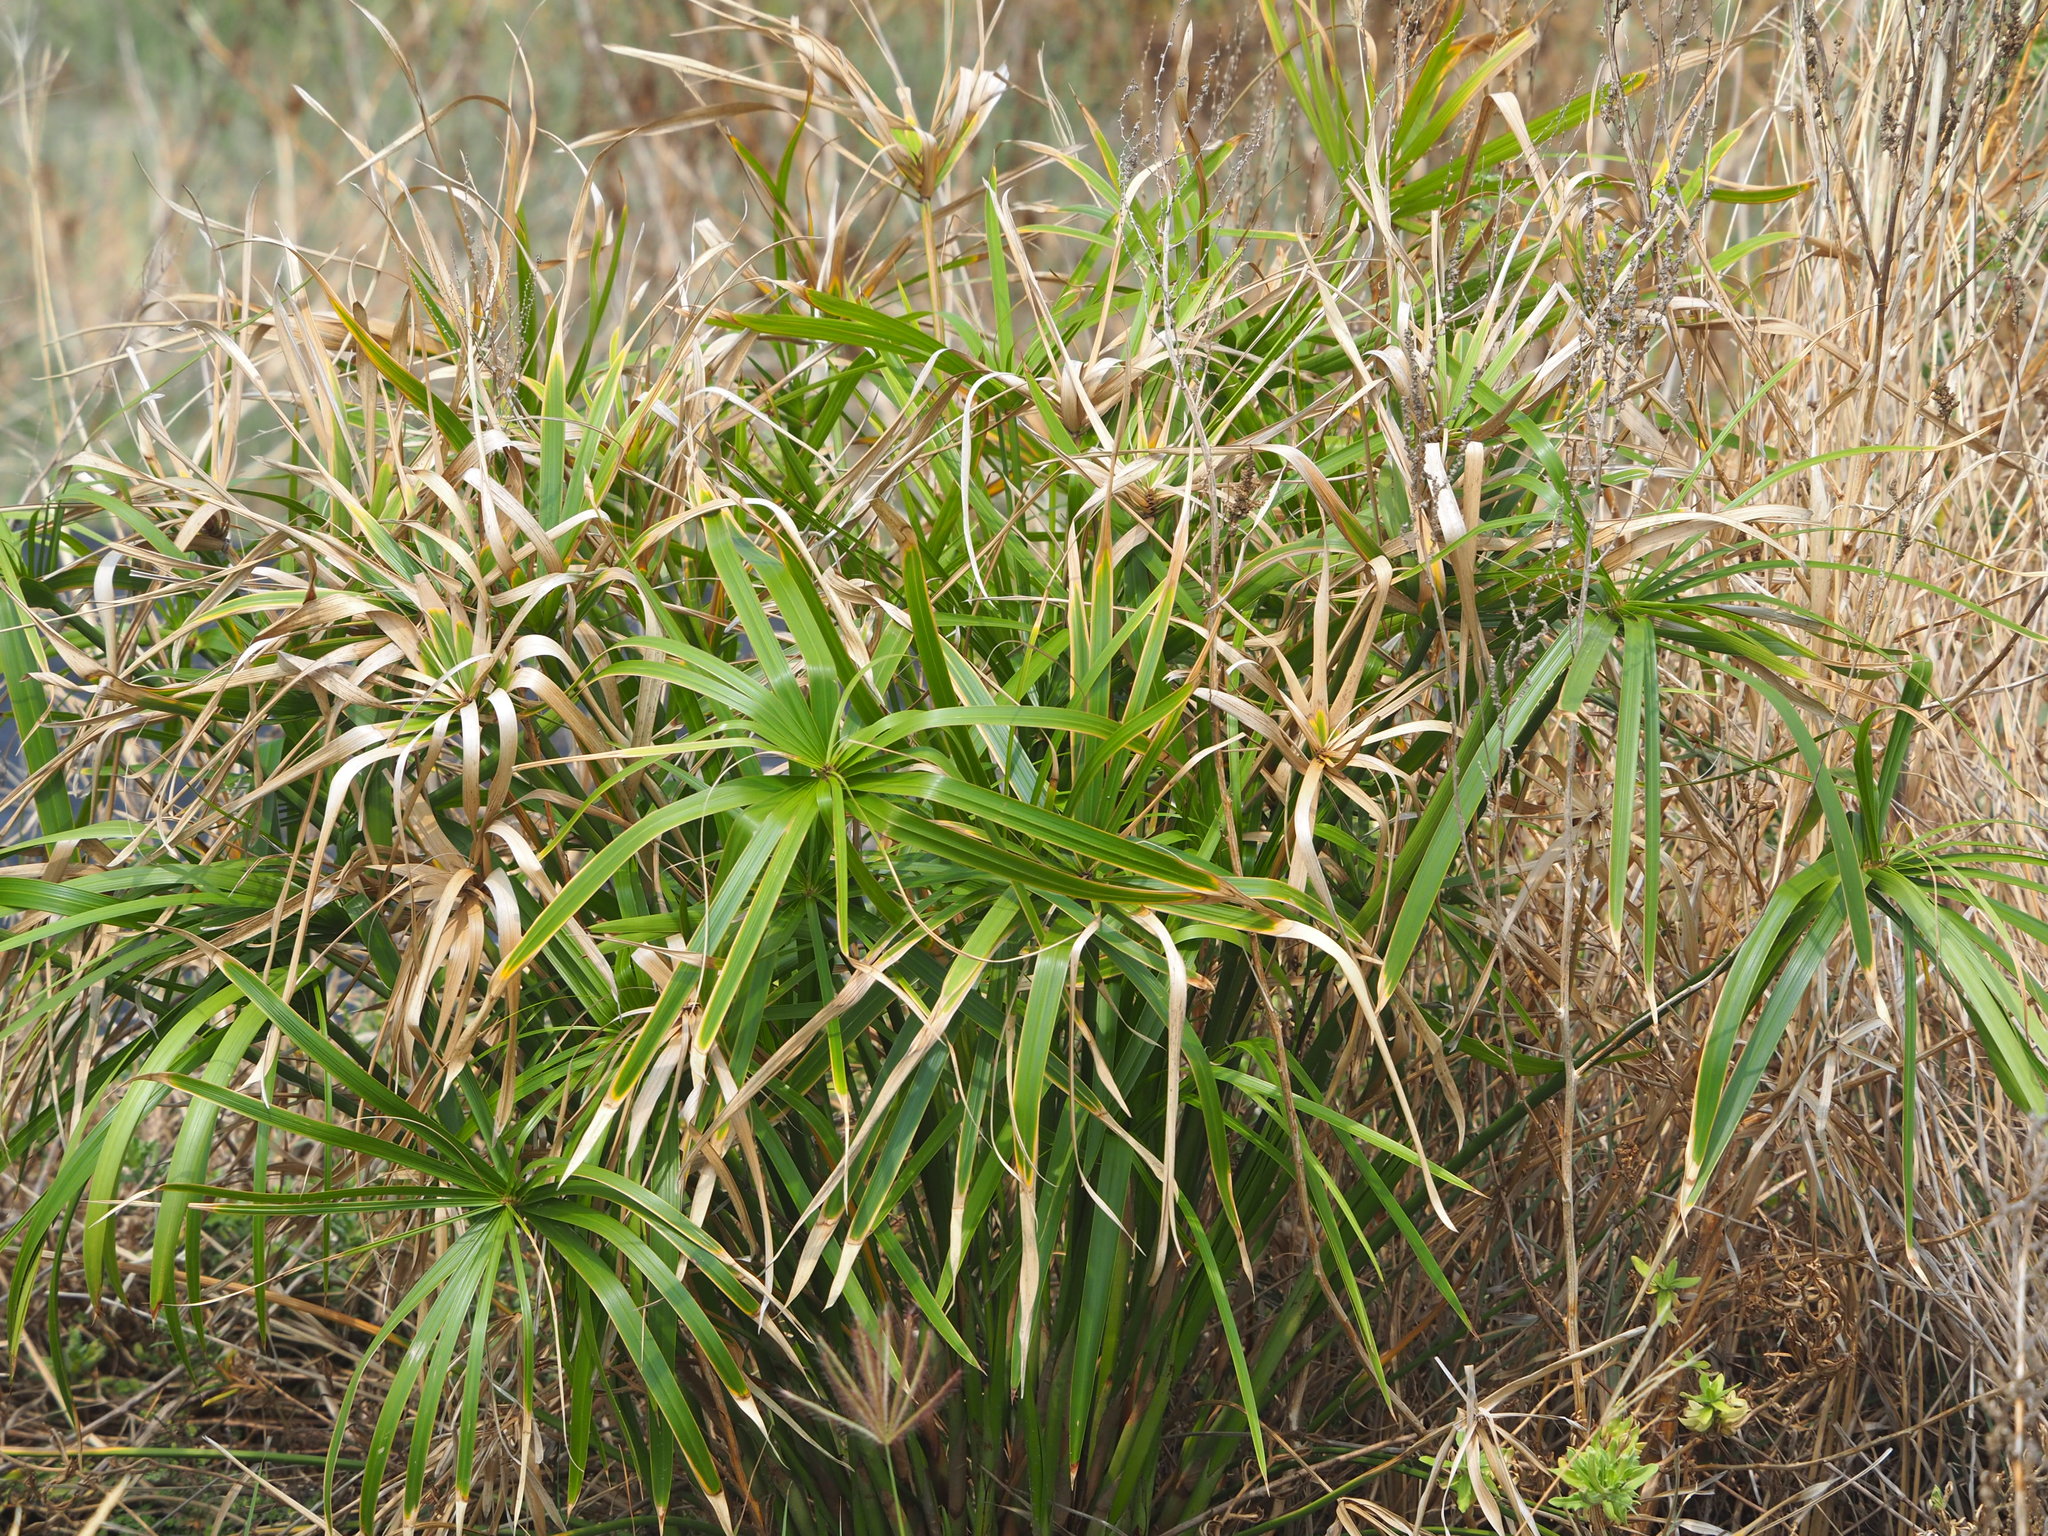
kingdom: Plantae
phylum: Tracheophyta
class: Liliopsida
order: Poales
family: Cyperaceae
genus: Cyperus
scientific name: Cyperus alternifolius
